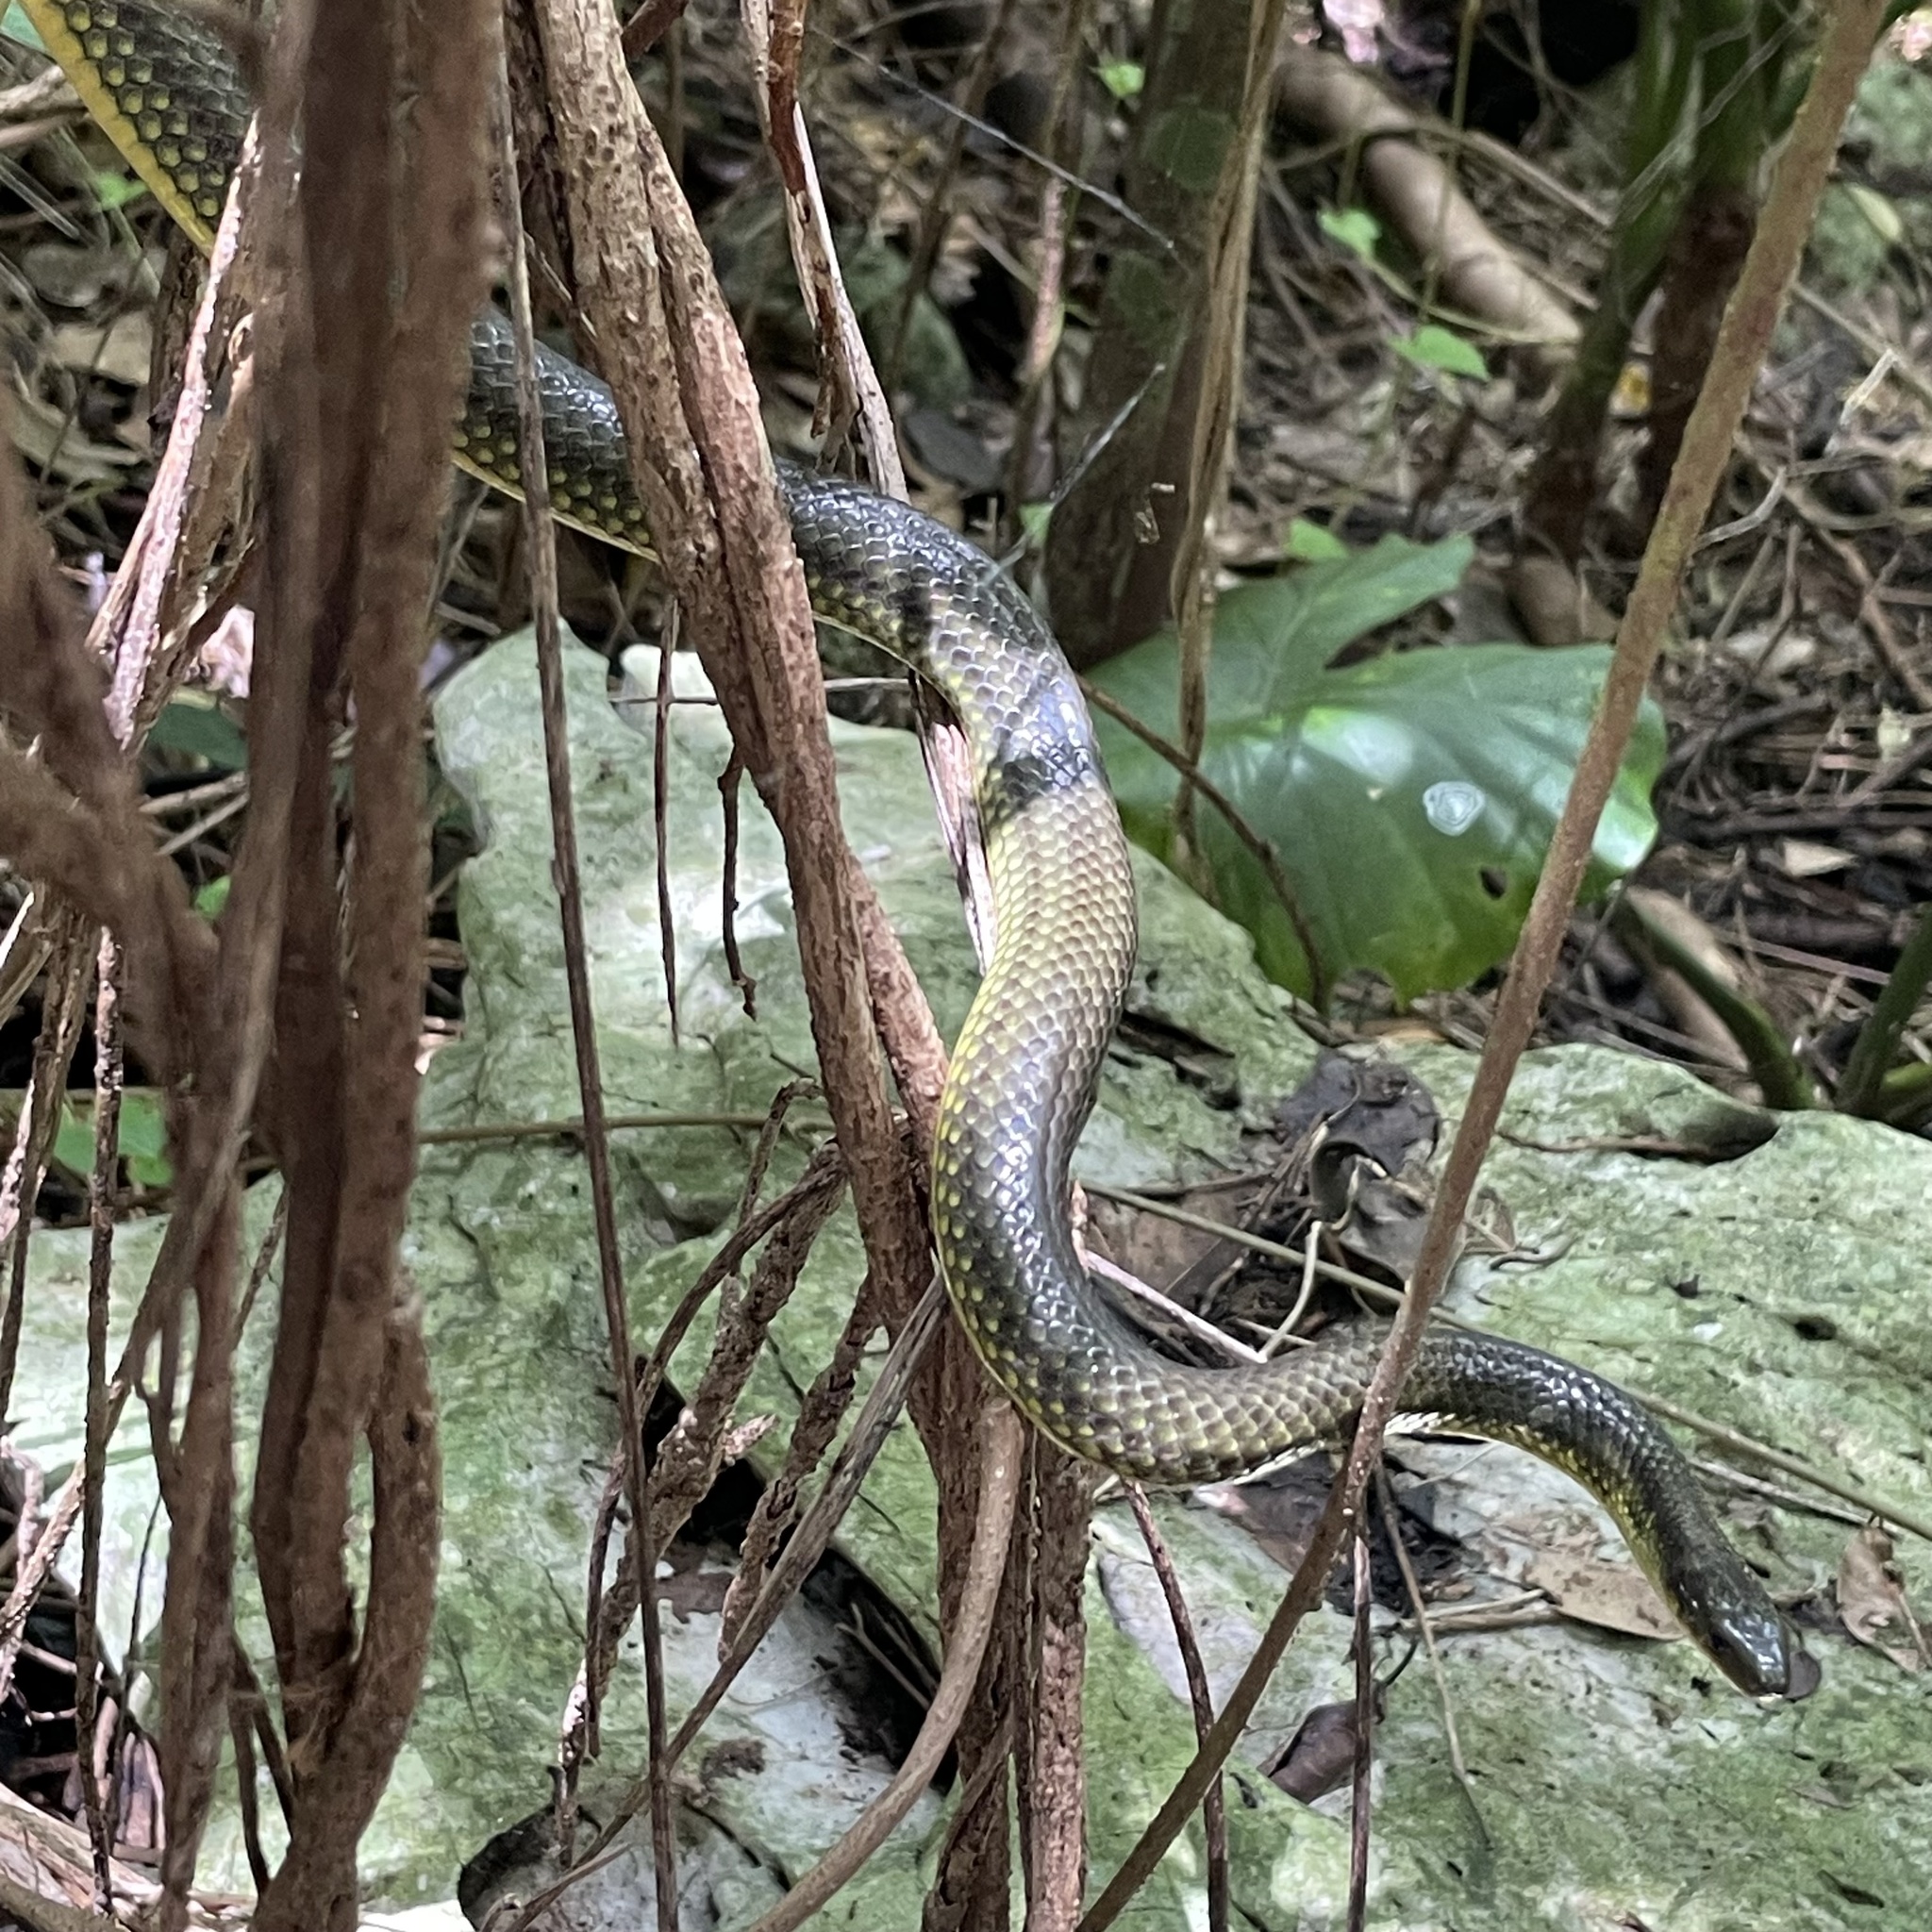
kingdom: Animalia
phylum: Chordata
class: Squamata
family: Colubridae
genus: Ptyas
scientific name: Ptyas semicarinata
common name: Ryukyu green snake
